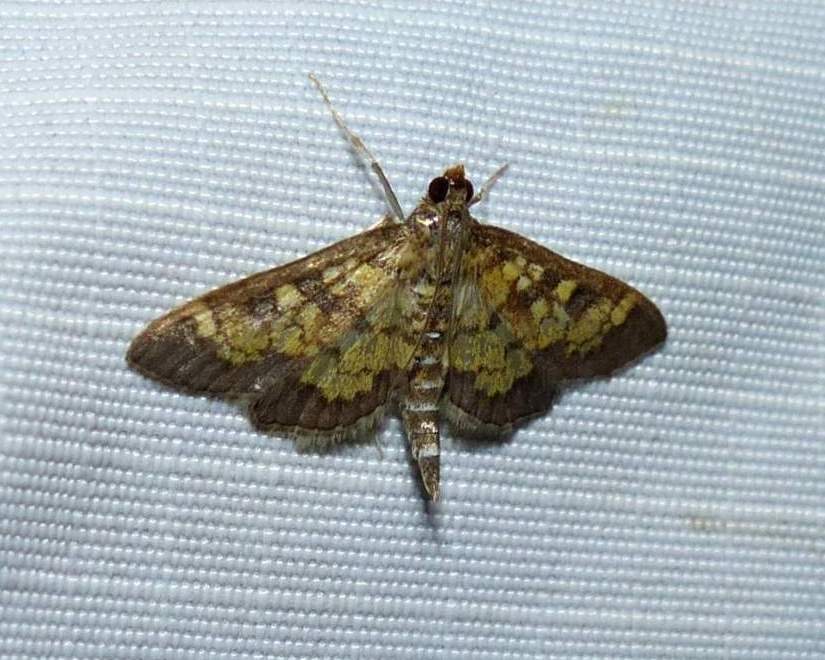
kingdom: Animalia
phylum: Arthropoda
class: Insecta
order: Lepidoptera
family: Crambidae
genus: Epipagis
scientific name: Epipagis adipaloides
